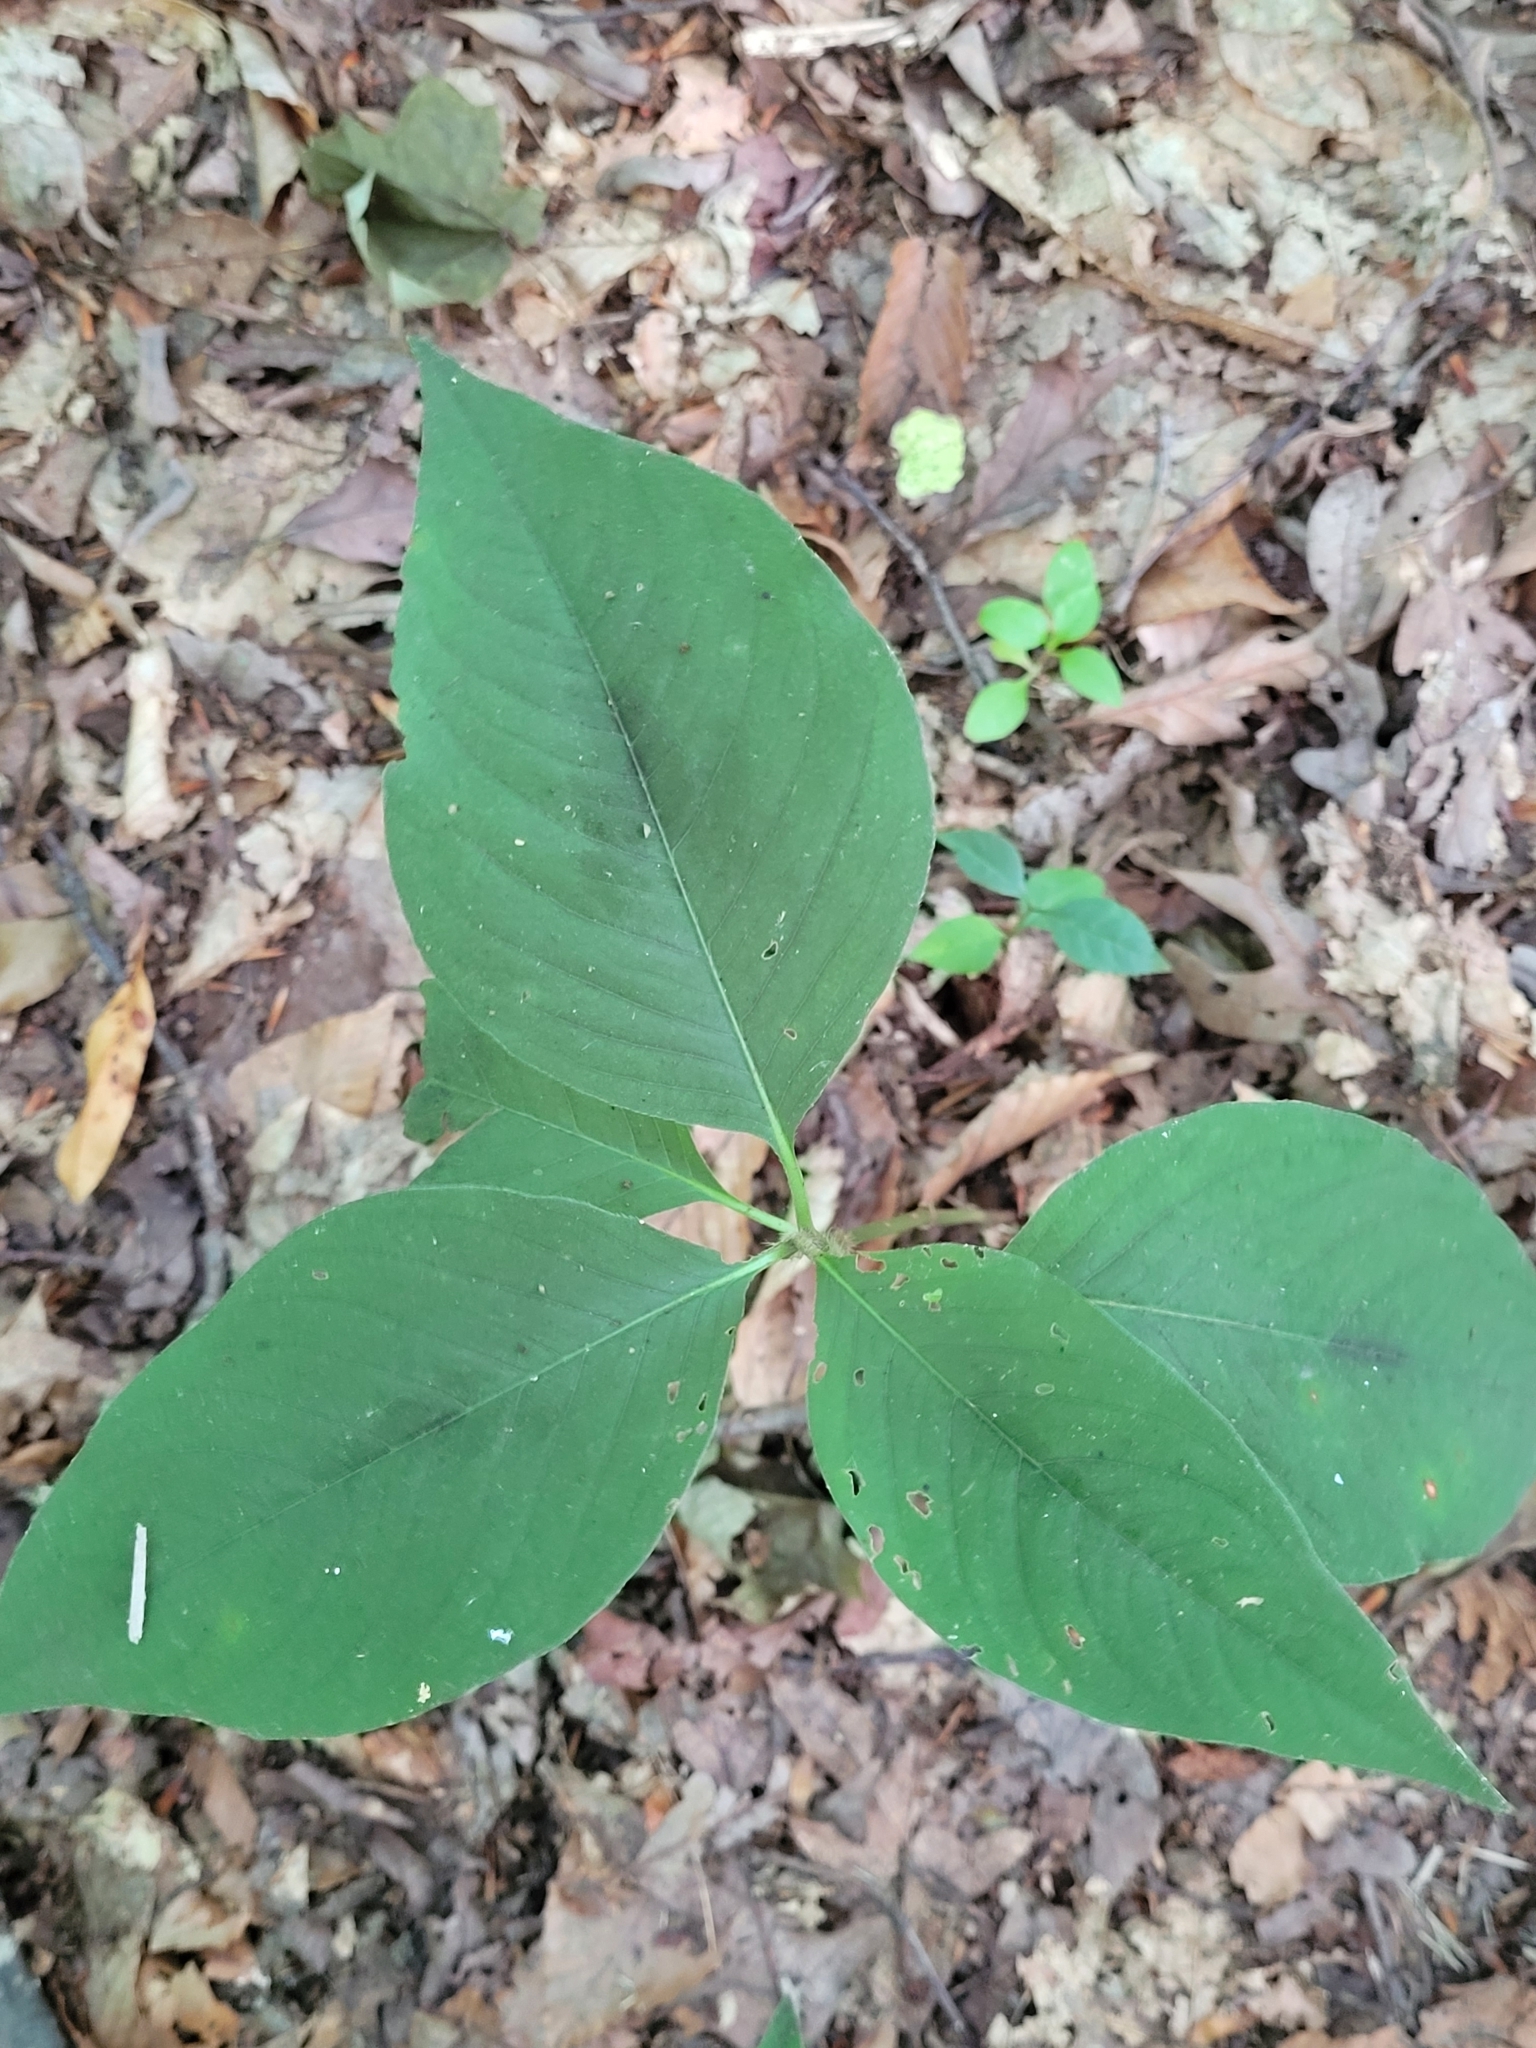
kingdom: Plantae
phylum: Tracheophyta
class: Magnoliopsida
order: Caryophyllales
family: Polygonaceae
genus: Persicaria
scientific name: Persicaria virginiana
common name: Jumpseed
